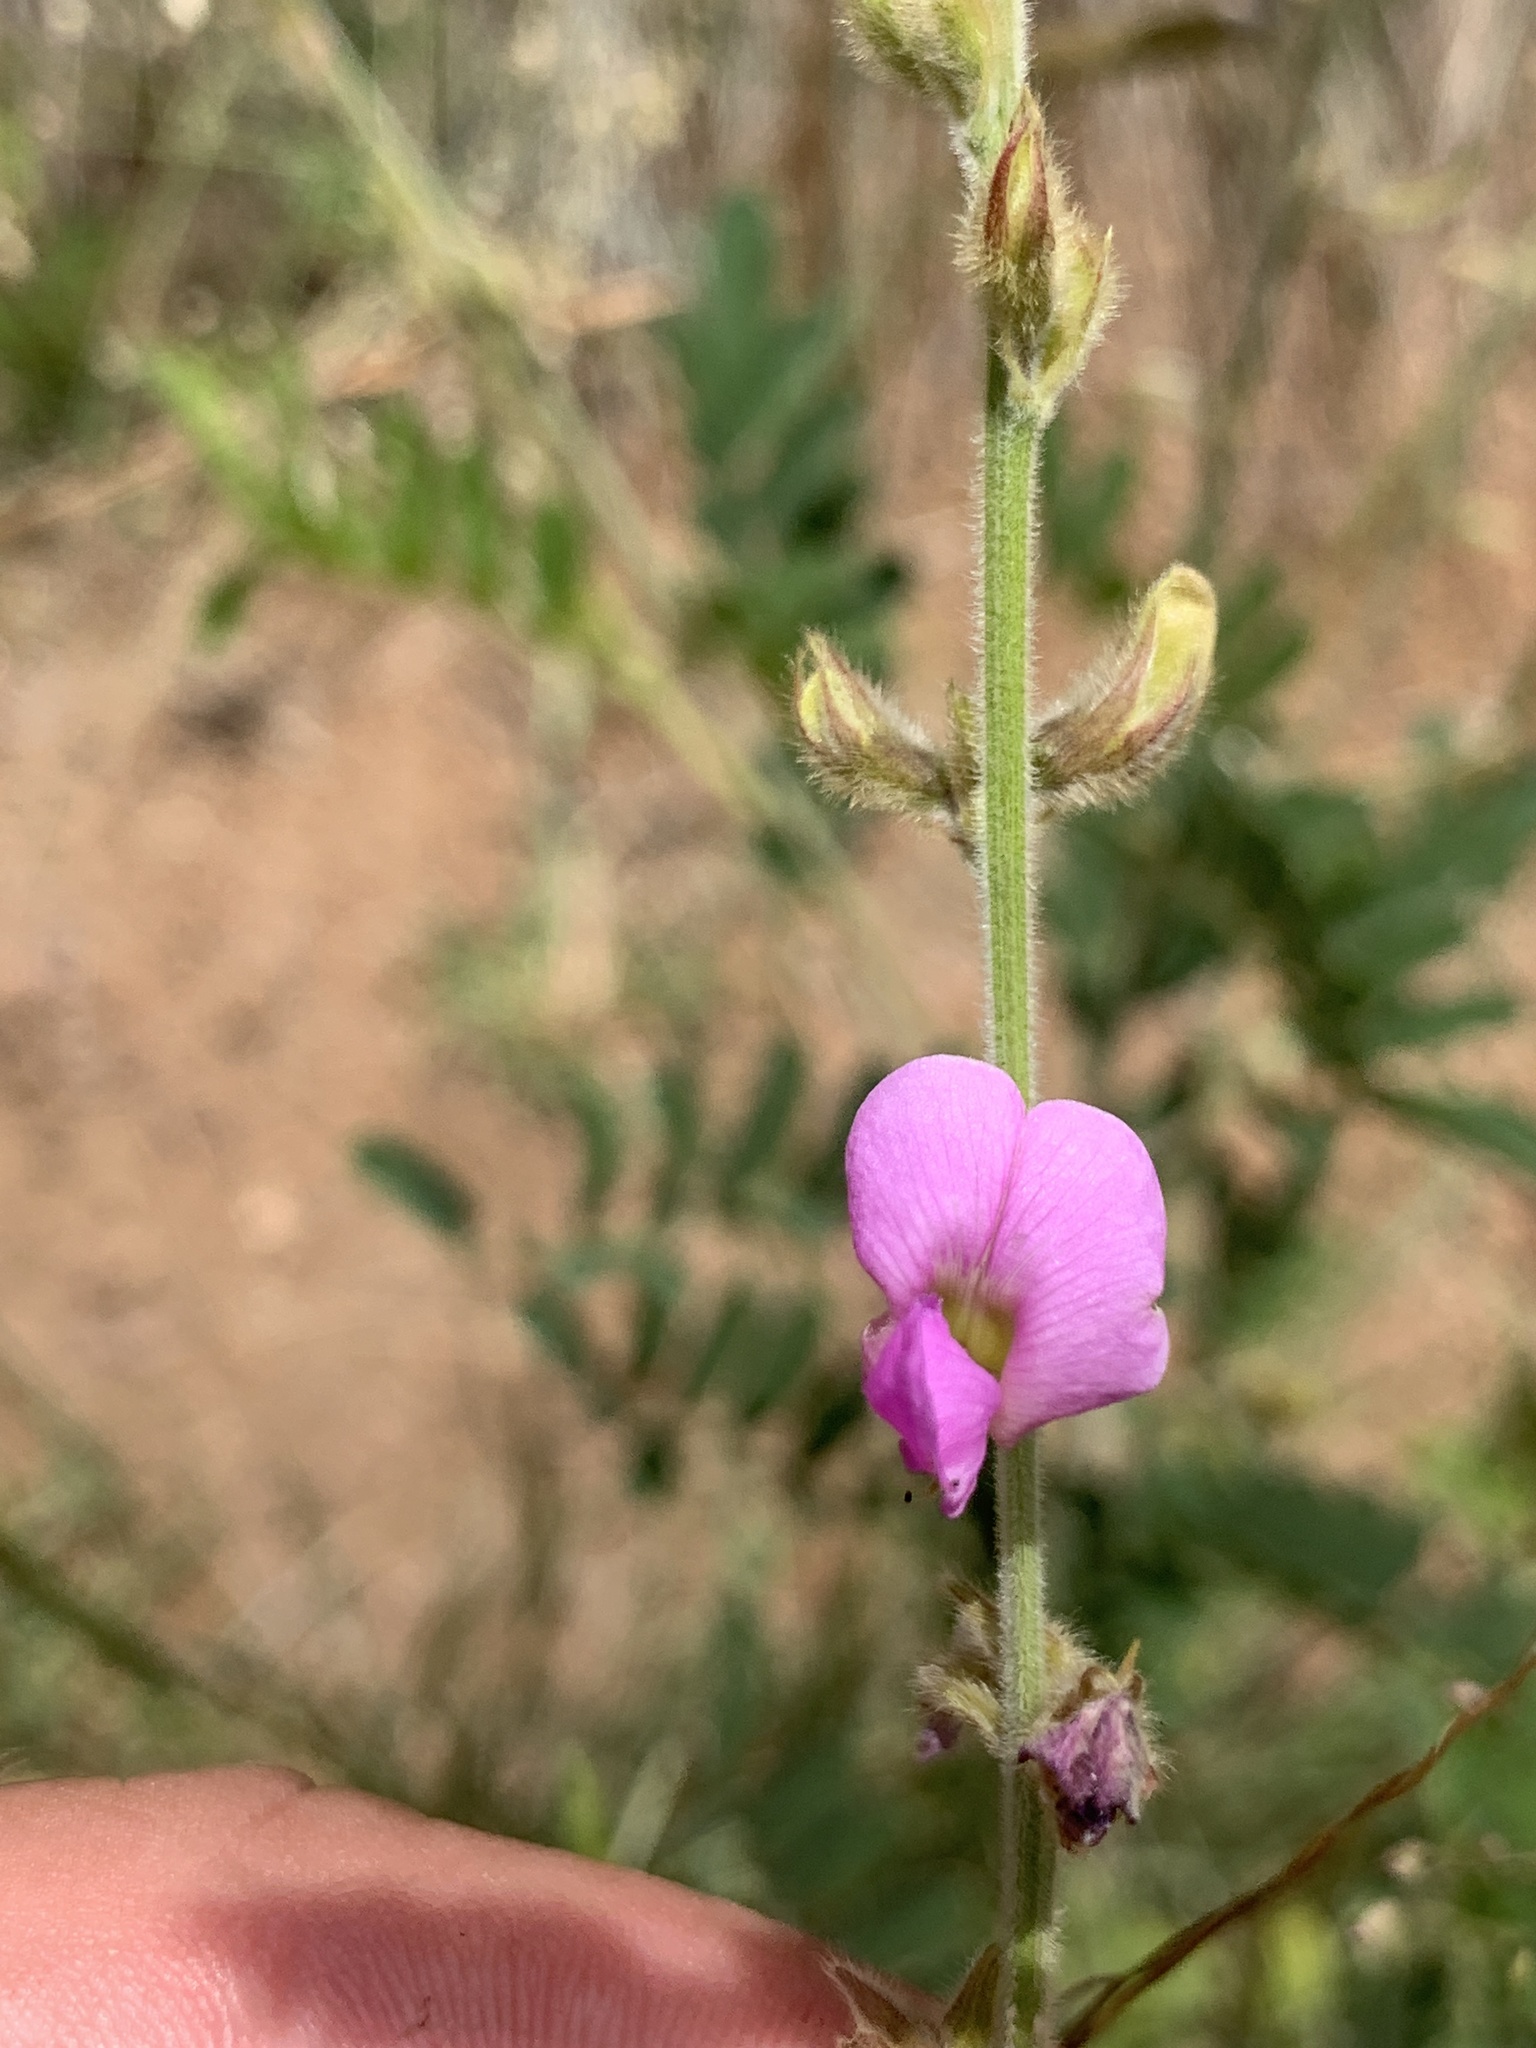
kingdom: Plantae
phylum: Tracheophyta
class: Magnoliopsida
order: Fabales
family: Fabaceae
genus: Tephrosia
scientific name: Tephrosia rhodesica
